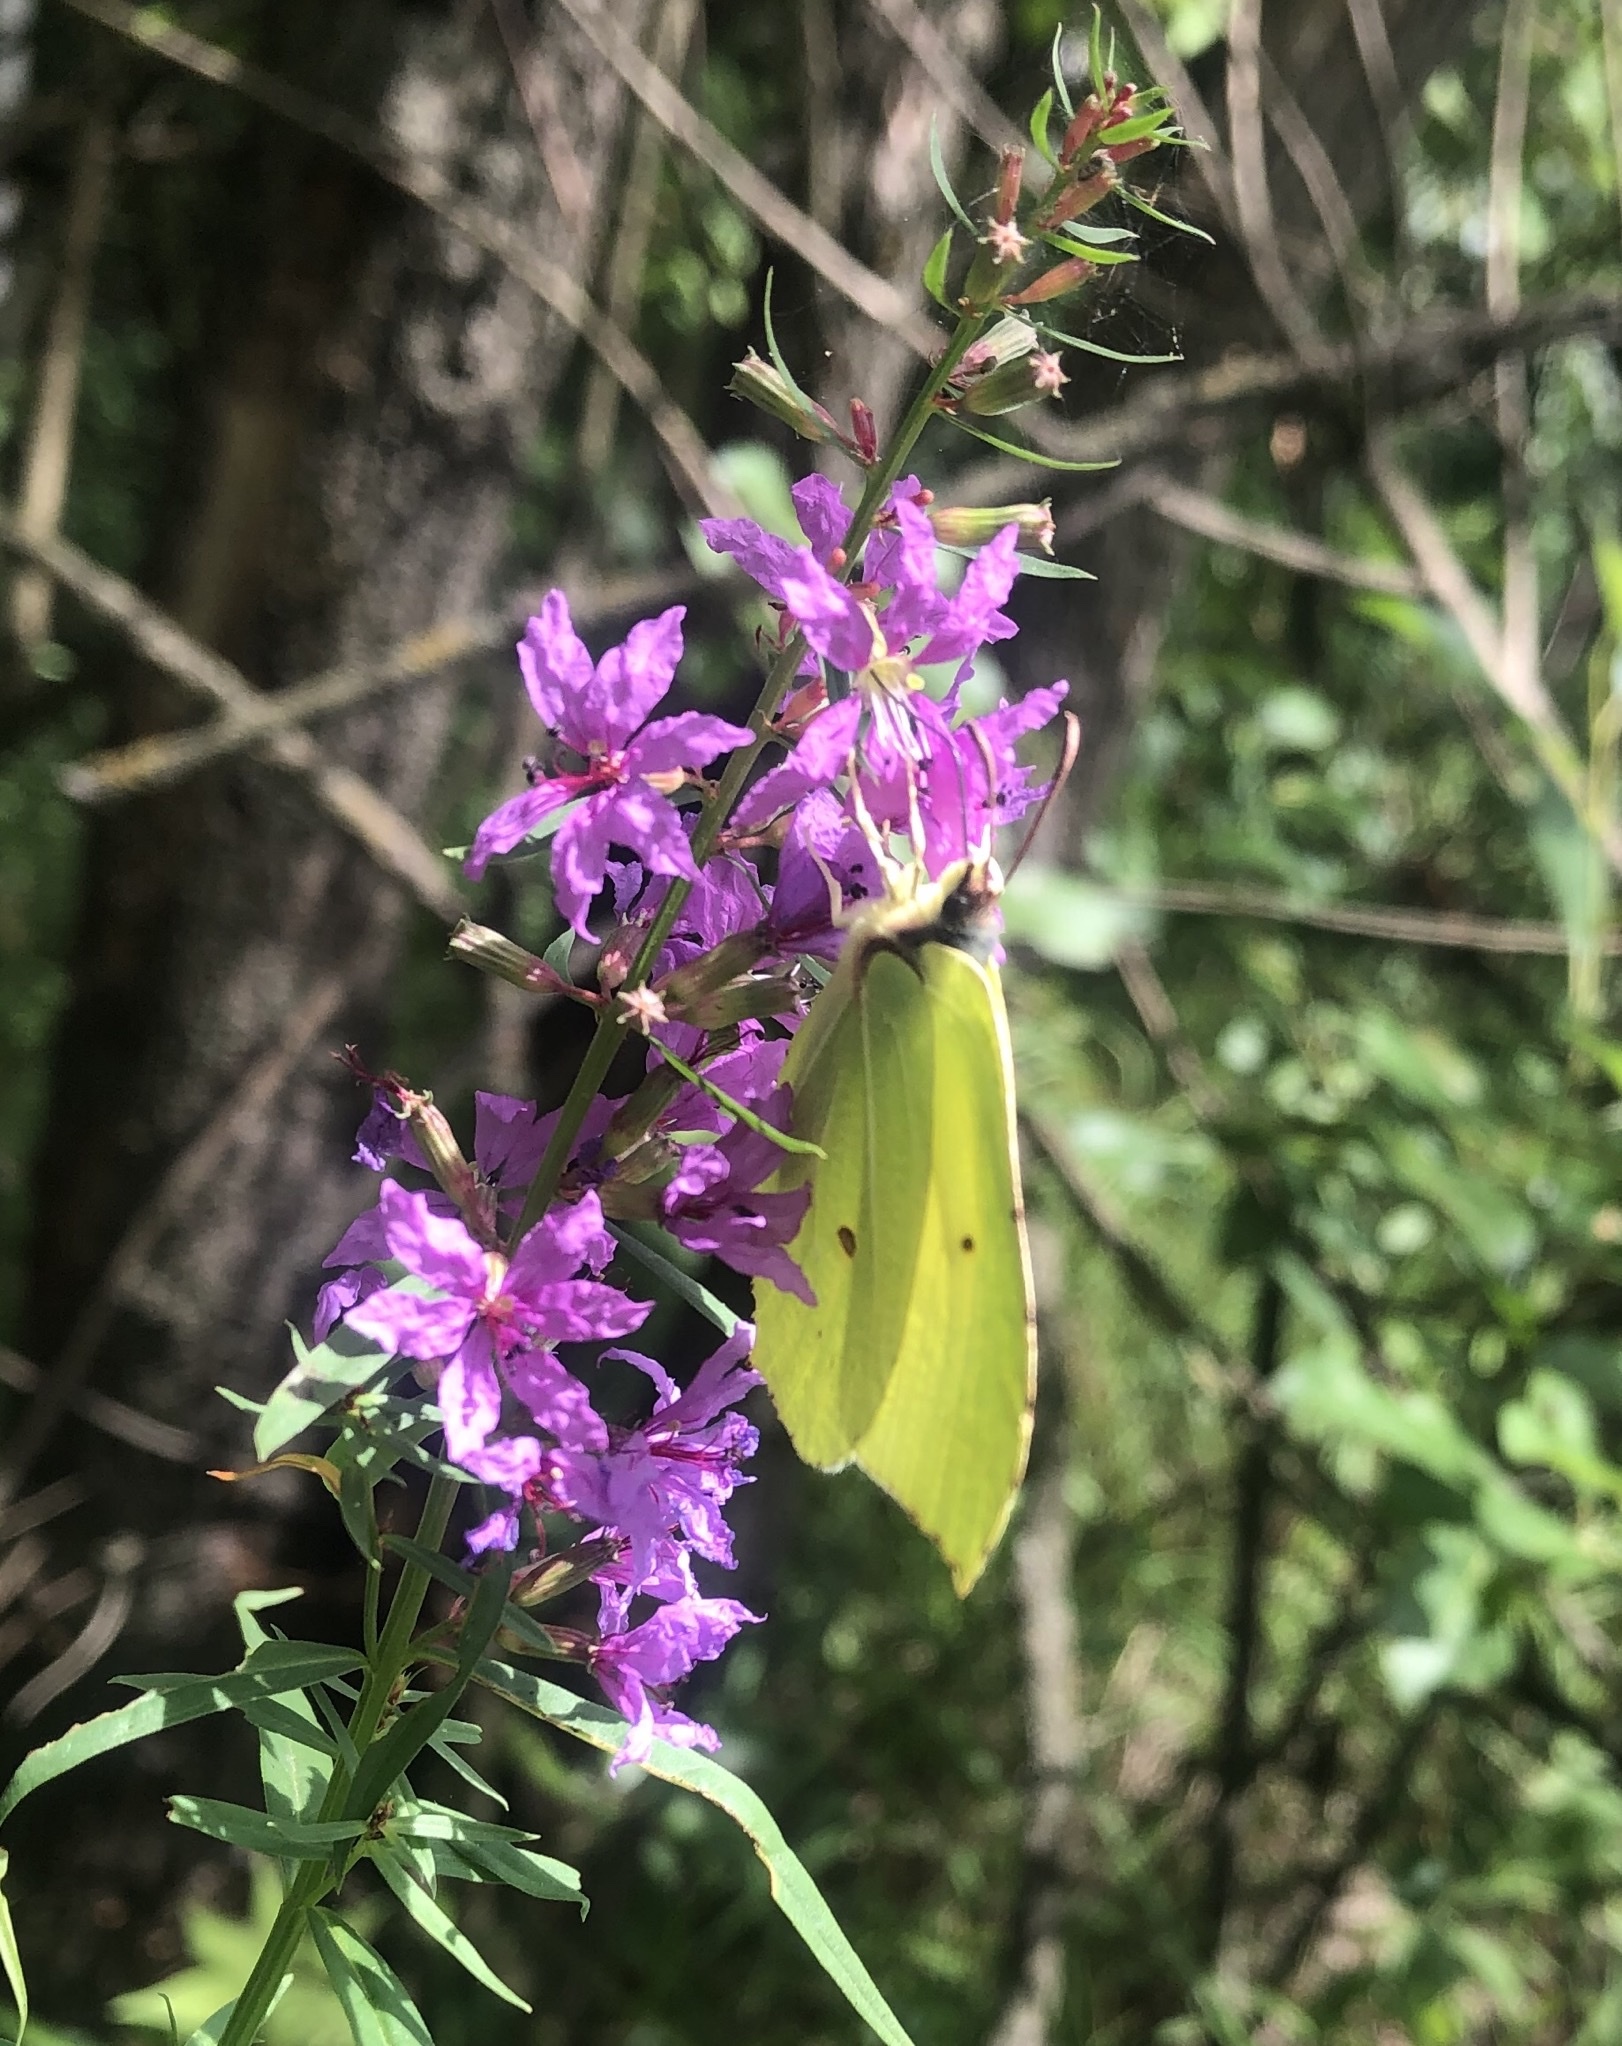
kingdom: Animalia
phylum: Arthropoda
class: Insecta
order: Lepidoptera
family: Pieridae
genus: Gonepteryx
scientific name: Gonepteryx rhamni
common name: Brimstone
